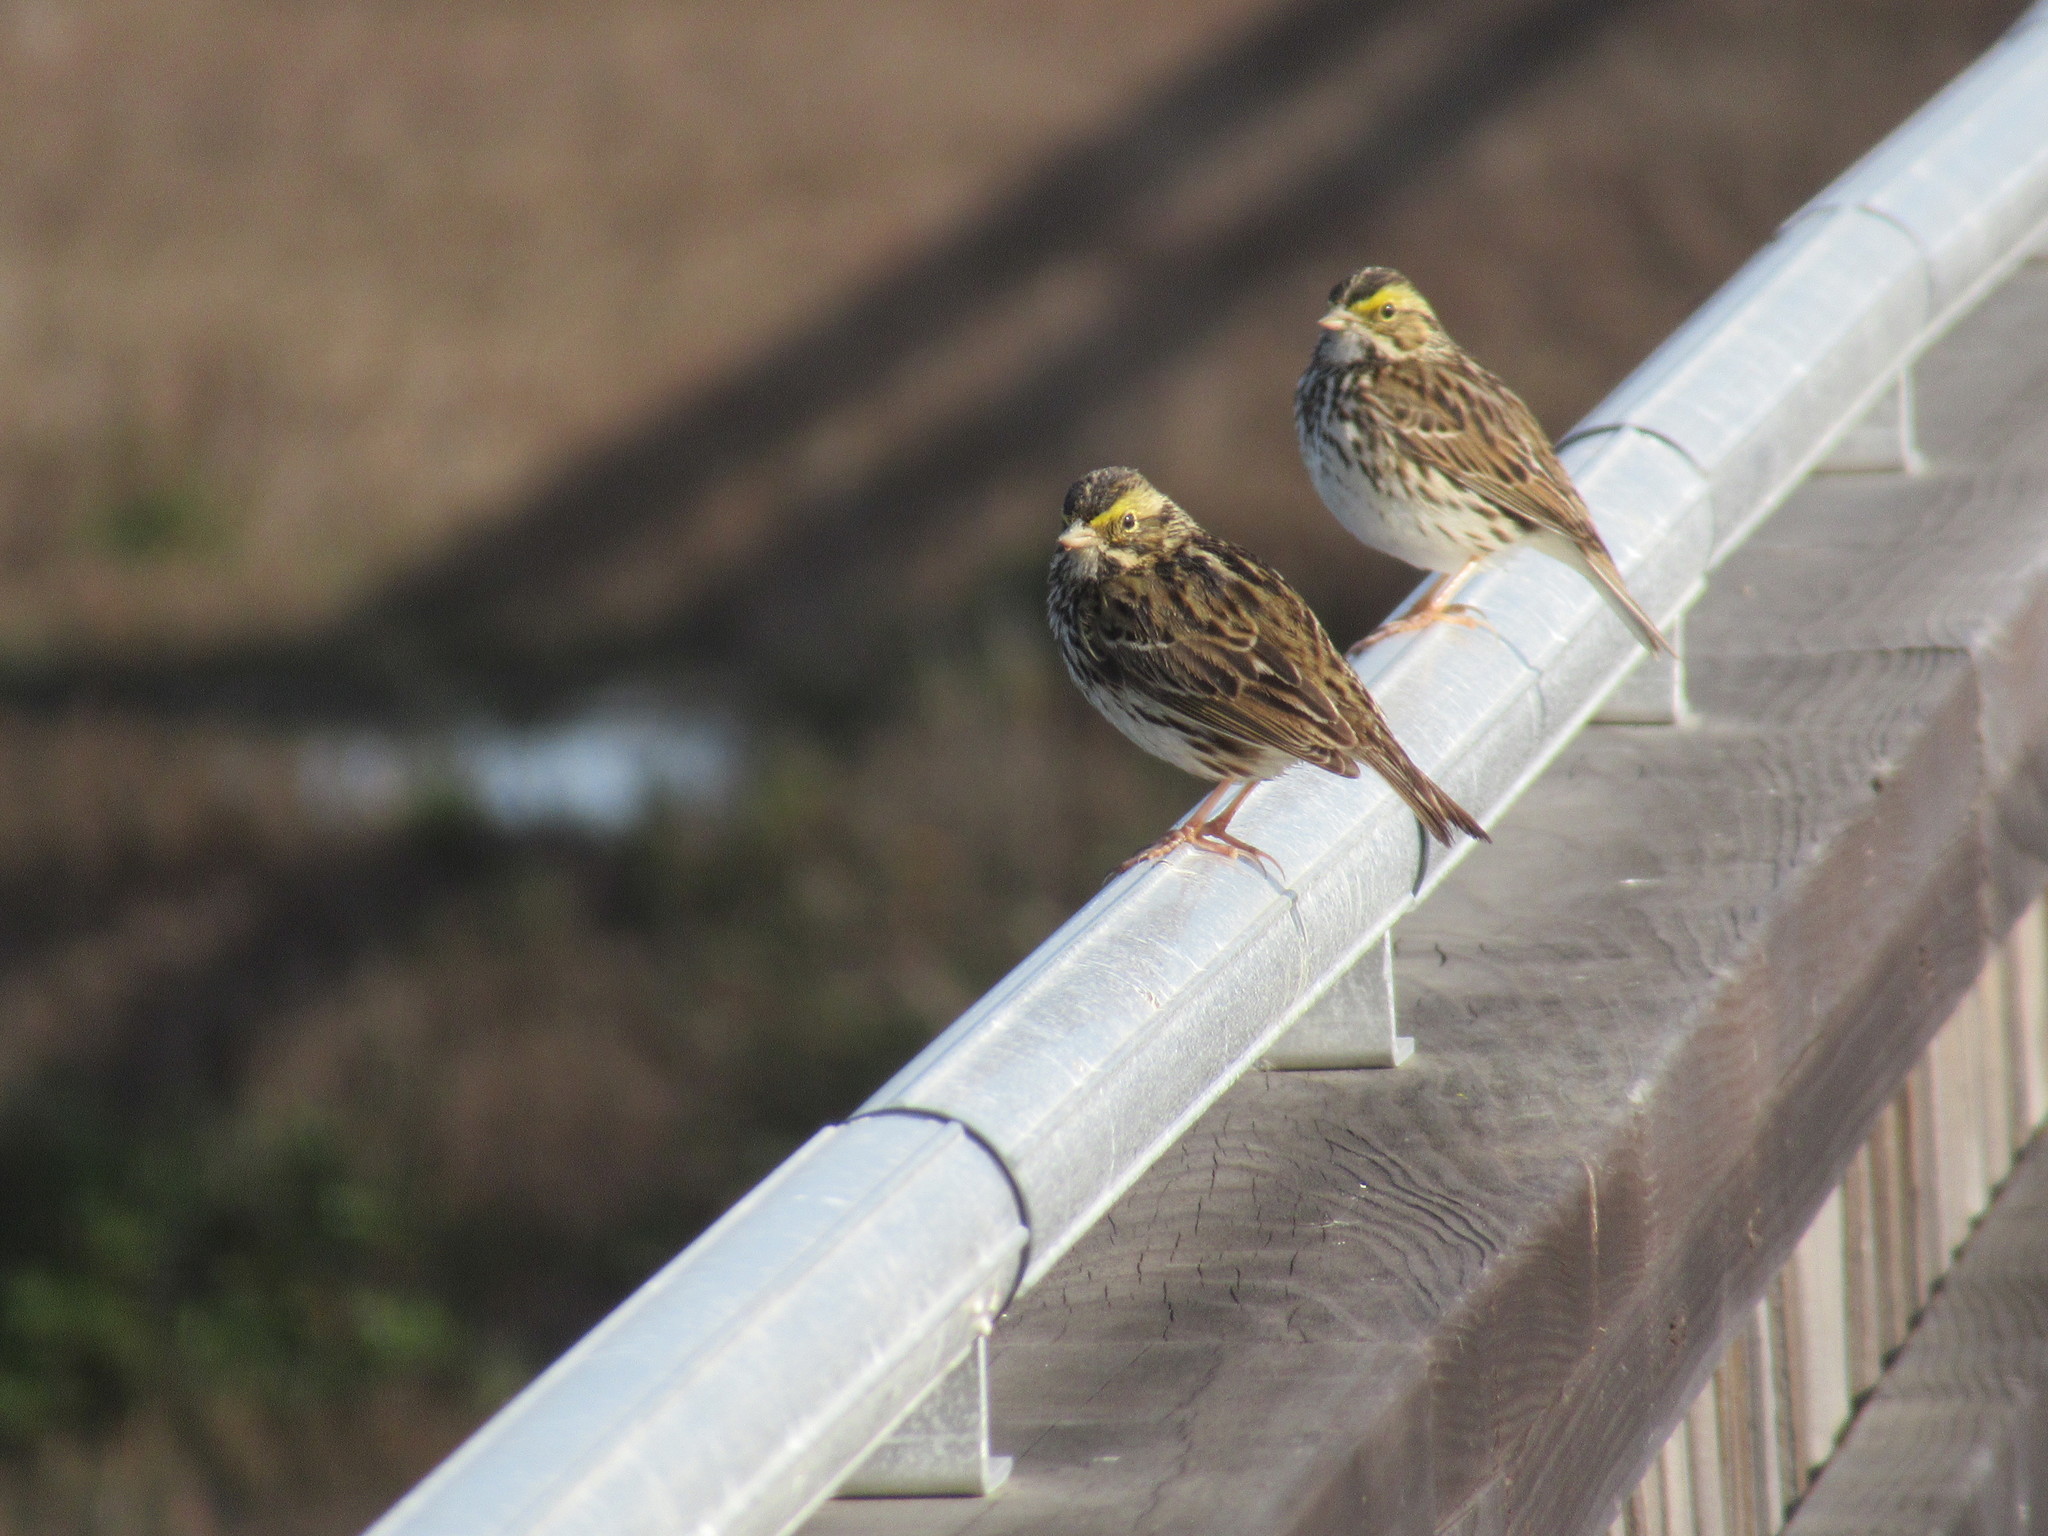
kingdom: Animalia
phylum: Chordata
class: Aves
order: Passeriformes
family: Passerellidae
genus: Passerculus
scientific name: Passerculus sandwichensis
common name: Savannah sparrow
